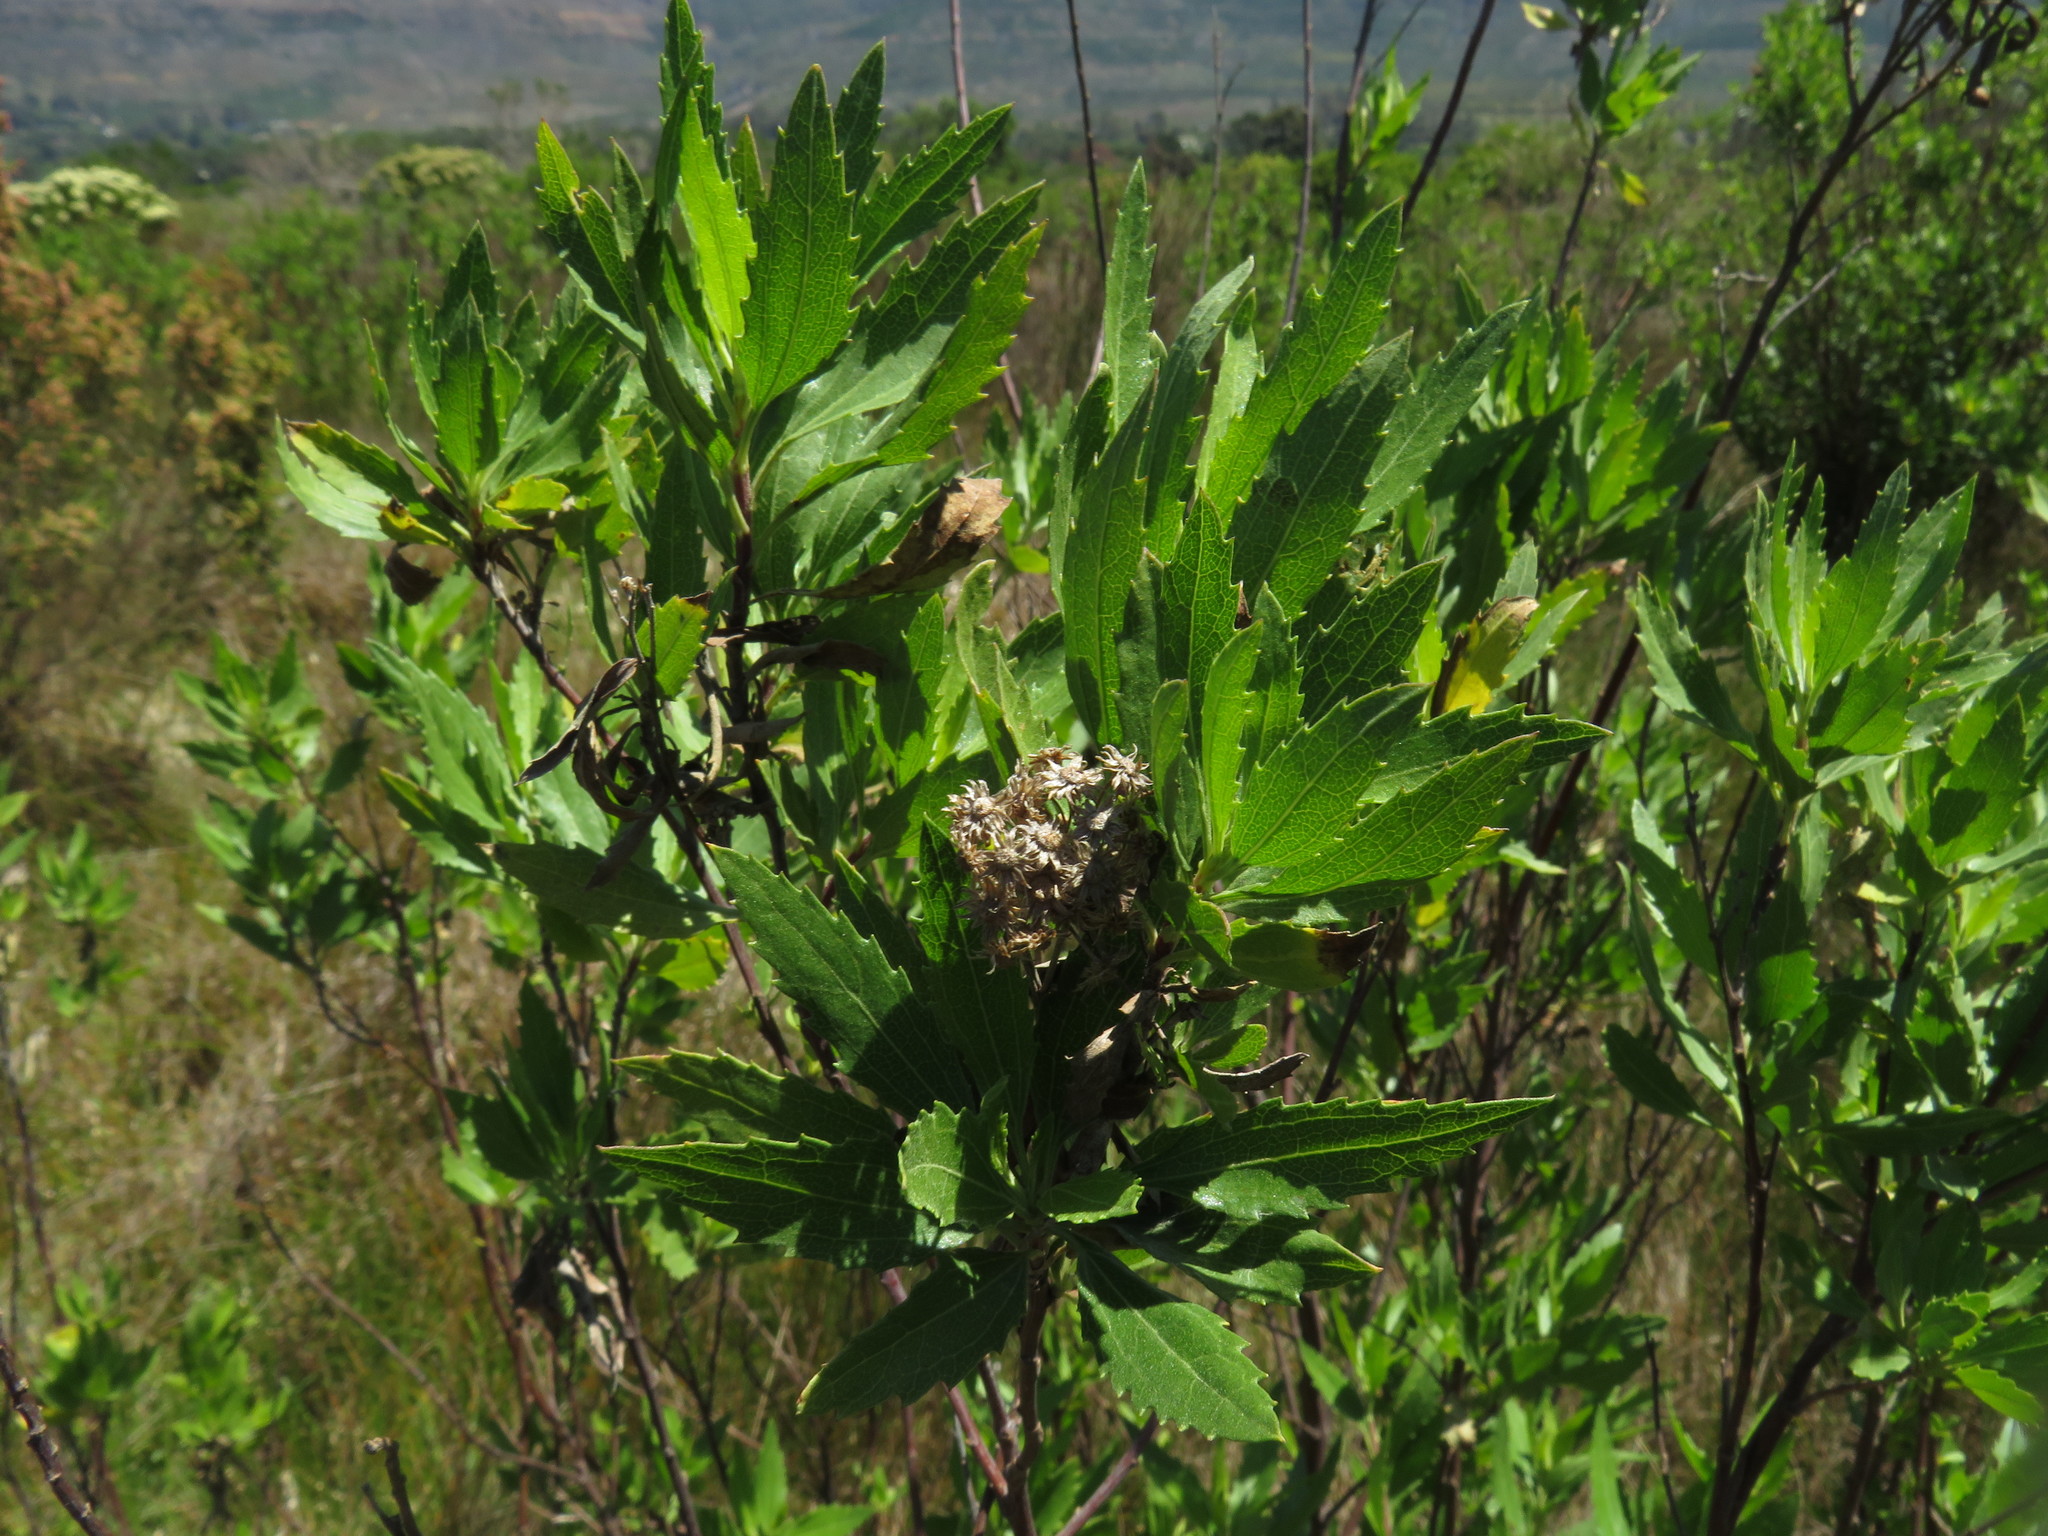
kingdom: Plantae
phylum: Tracheophyta
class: Magnoliopsida
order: Asterales
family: Asteraceae
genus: Nidorella
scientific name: Nidorella ivifolia
